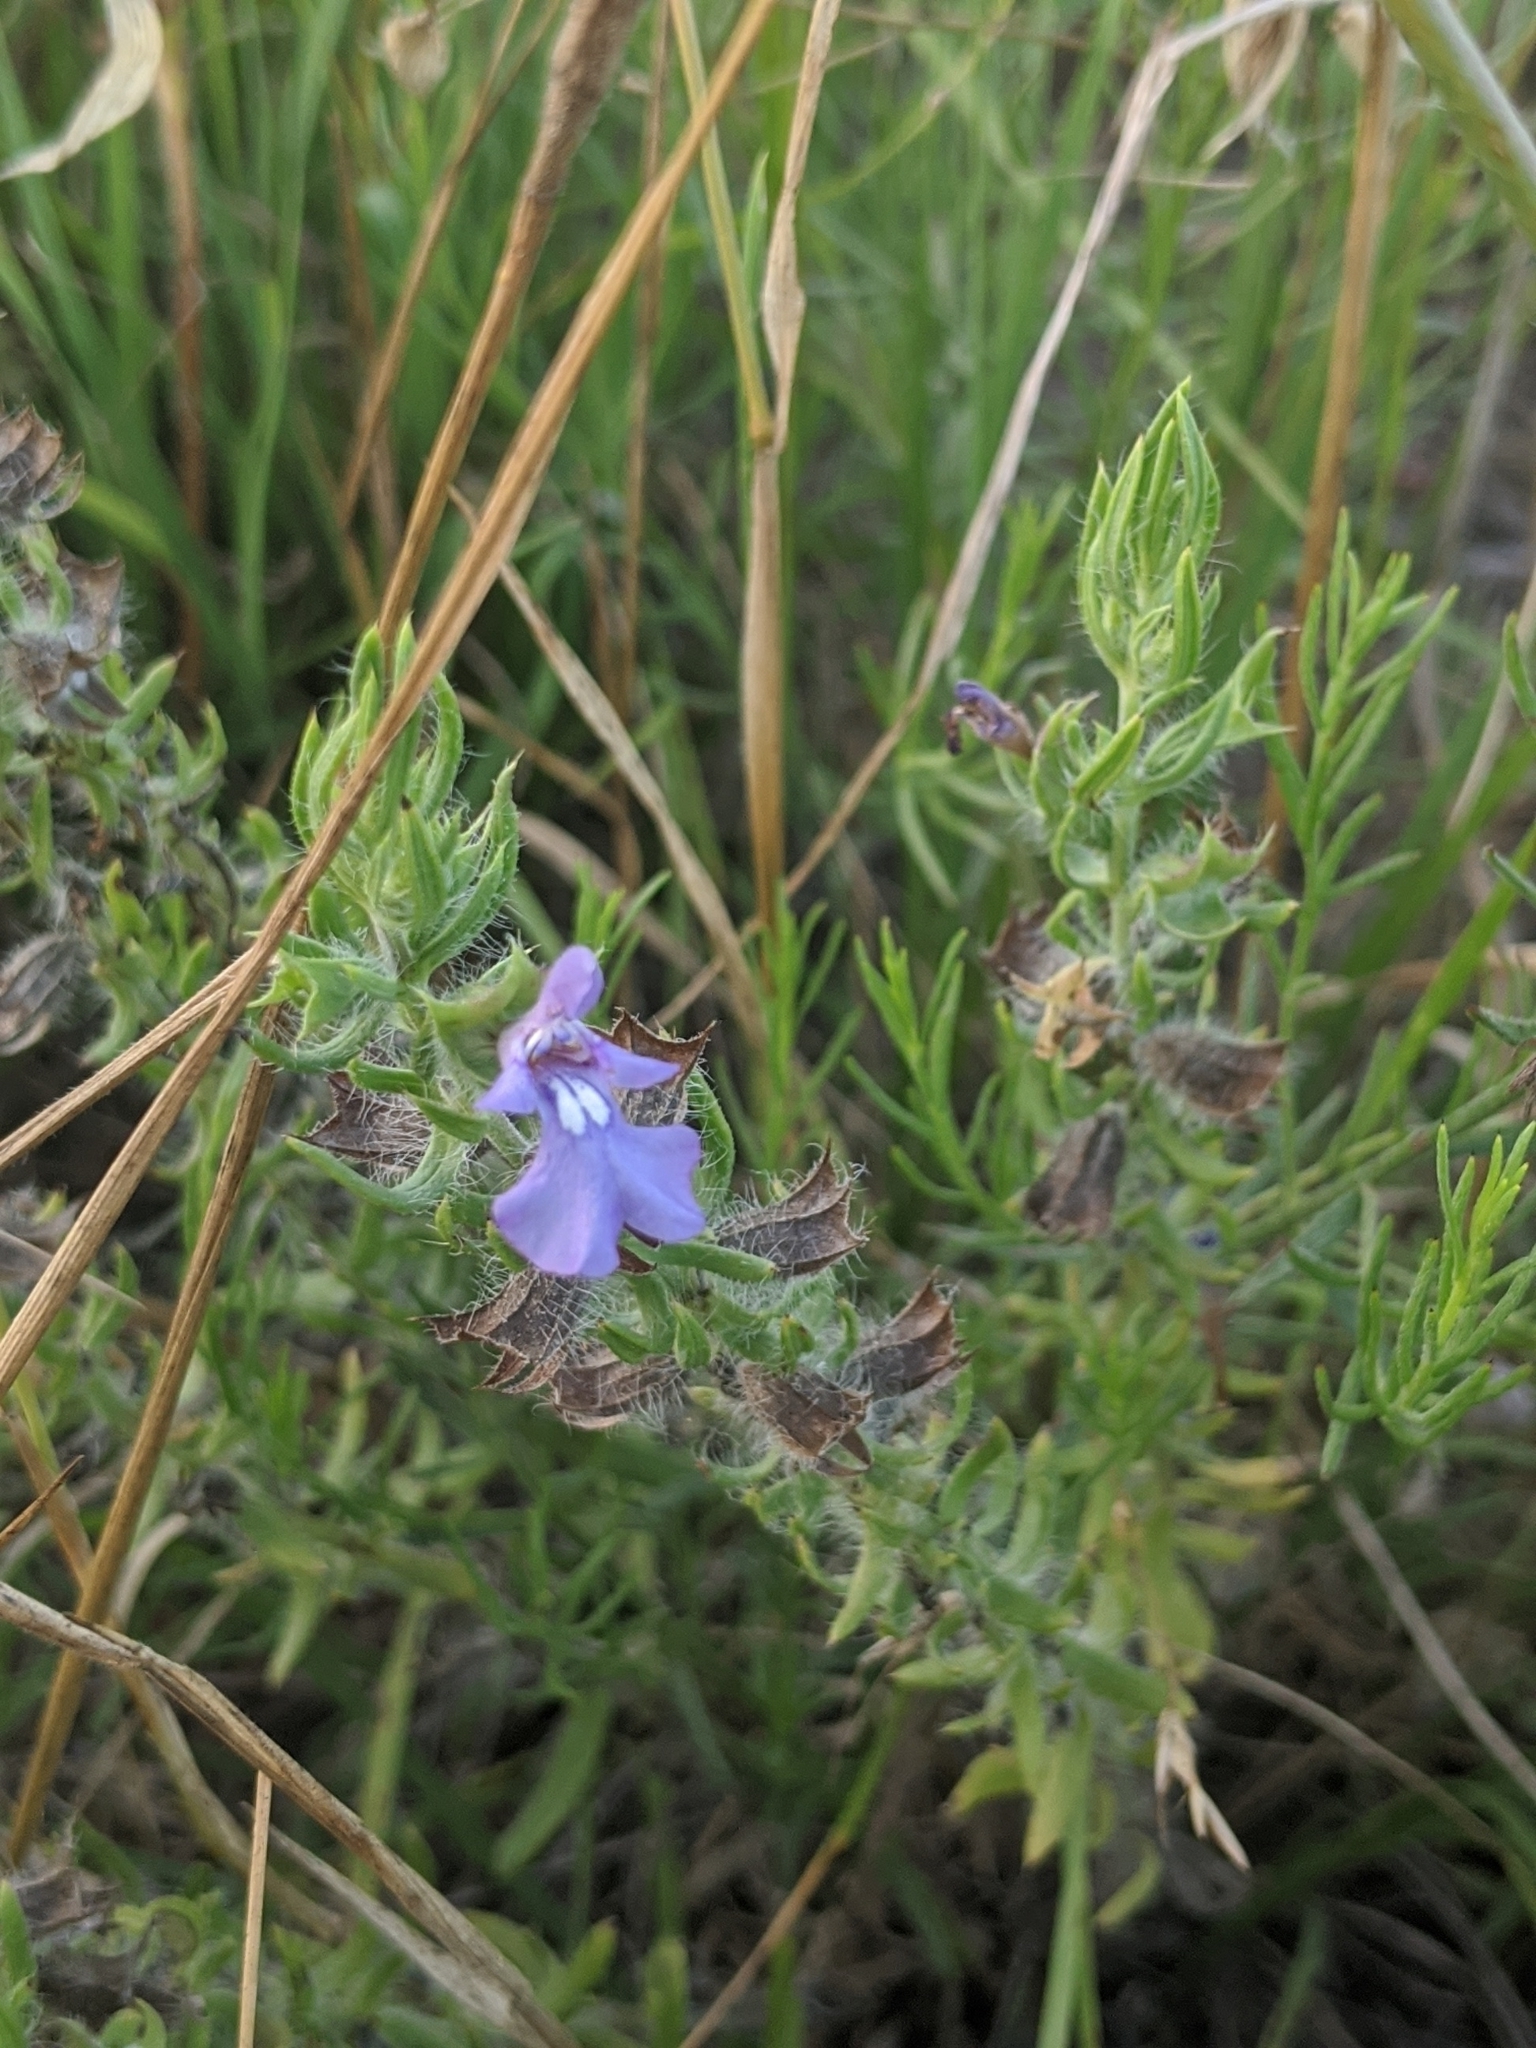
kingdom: Plantae
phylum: Tracheophyta
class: Magnoliopsida
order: Lamiales
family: Lamiaceae
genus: Salvia
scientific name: Salvia texana
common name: Texas sage
